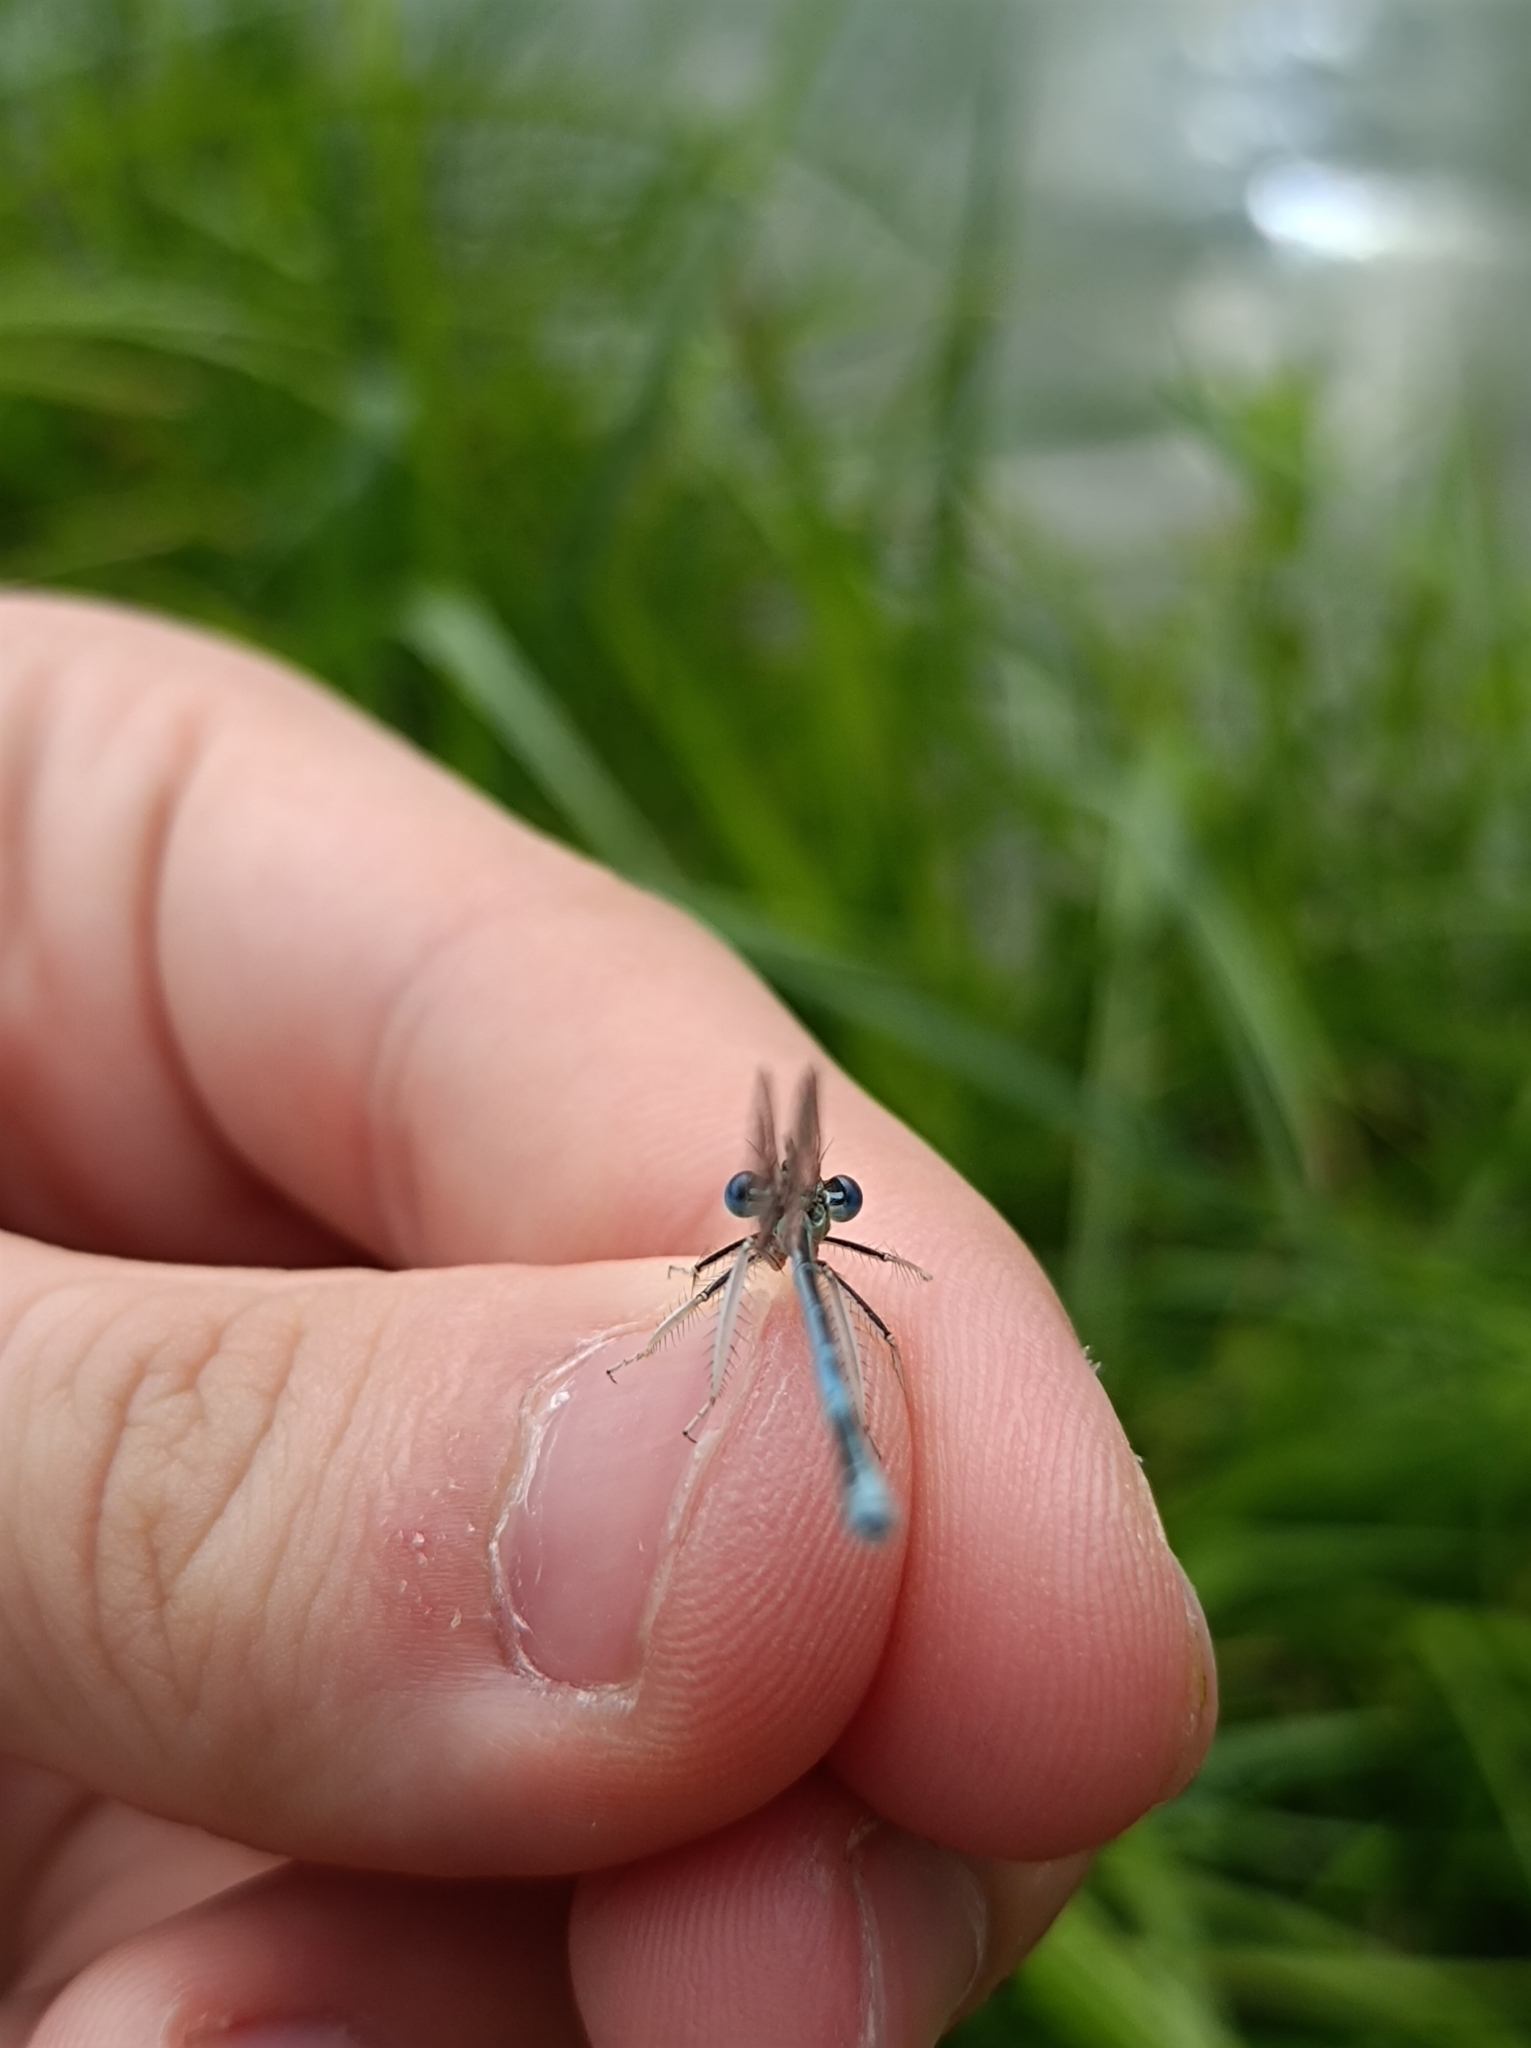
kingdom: Animalia
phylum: Arthropoda
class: Insecta
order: Odonata
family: Platycnemididae
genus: Platycnemis
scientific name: Platycnemis pennipes
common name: White-legged damselfly
